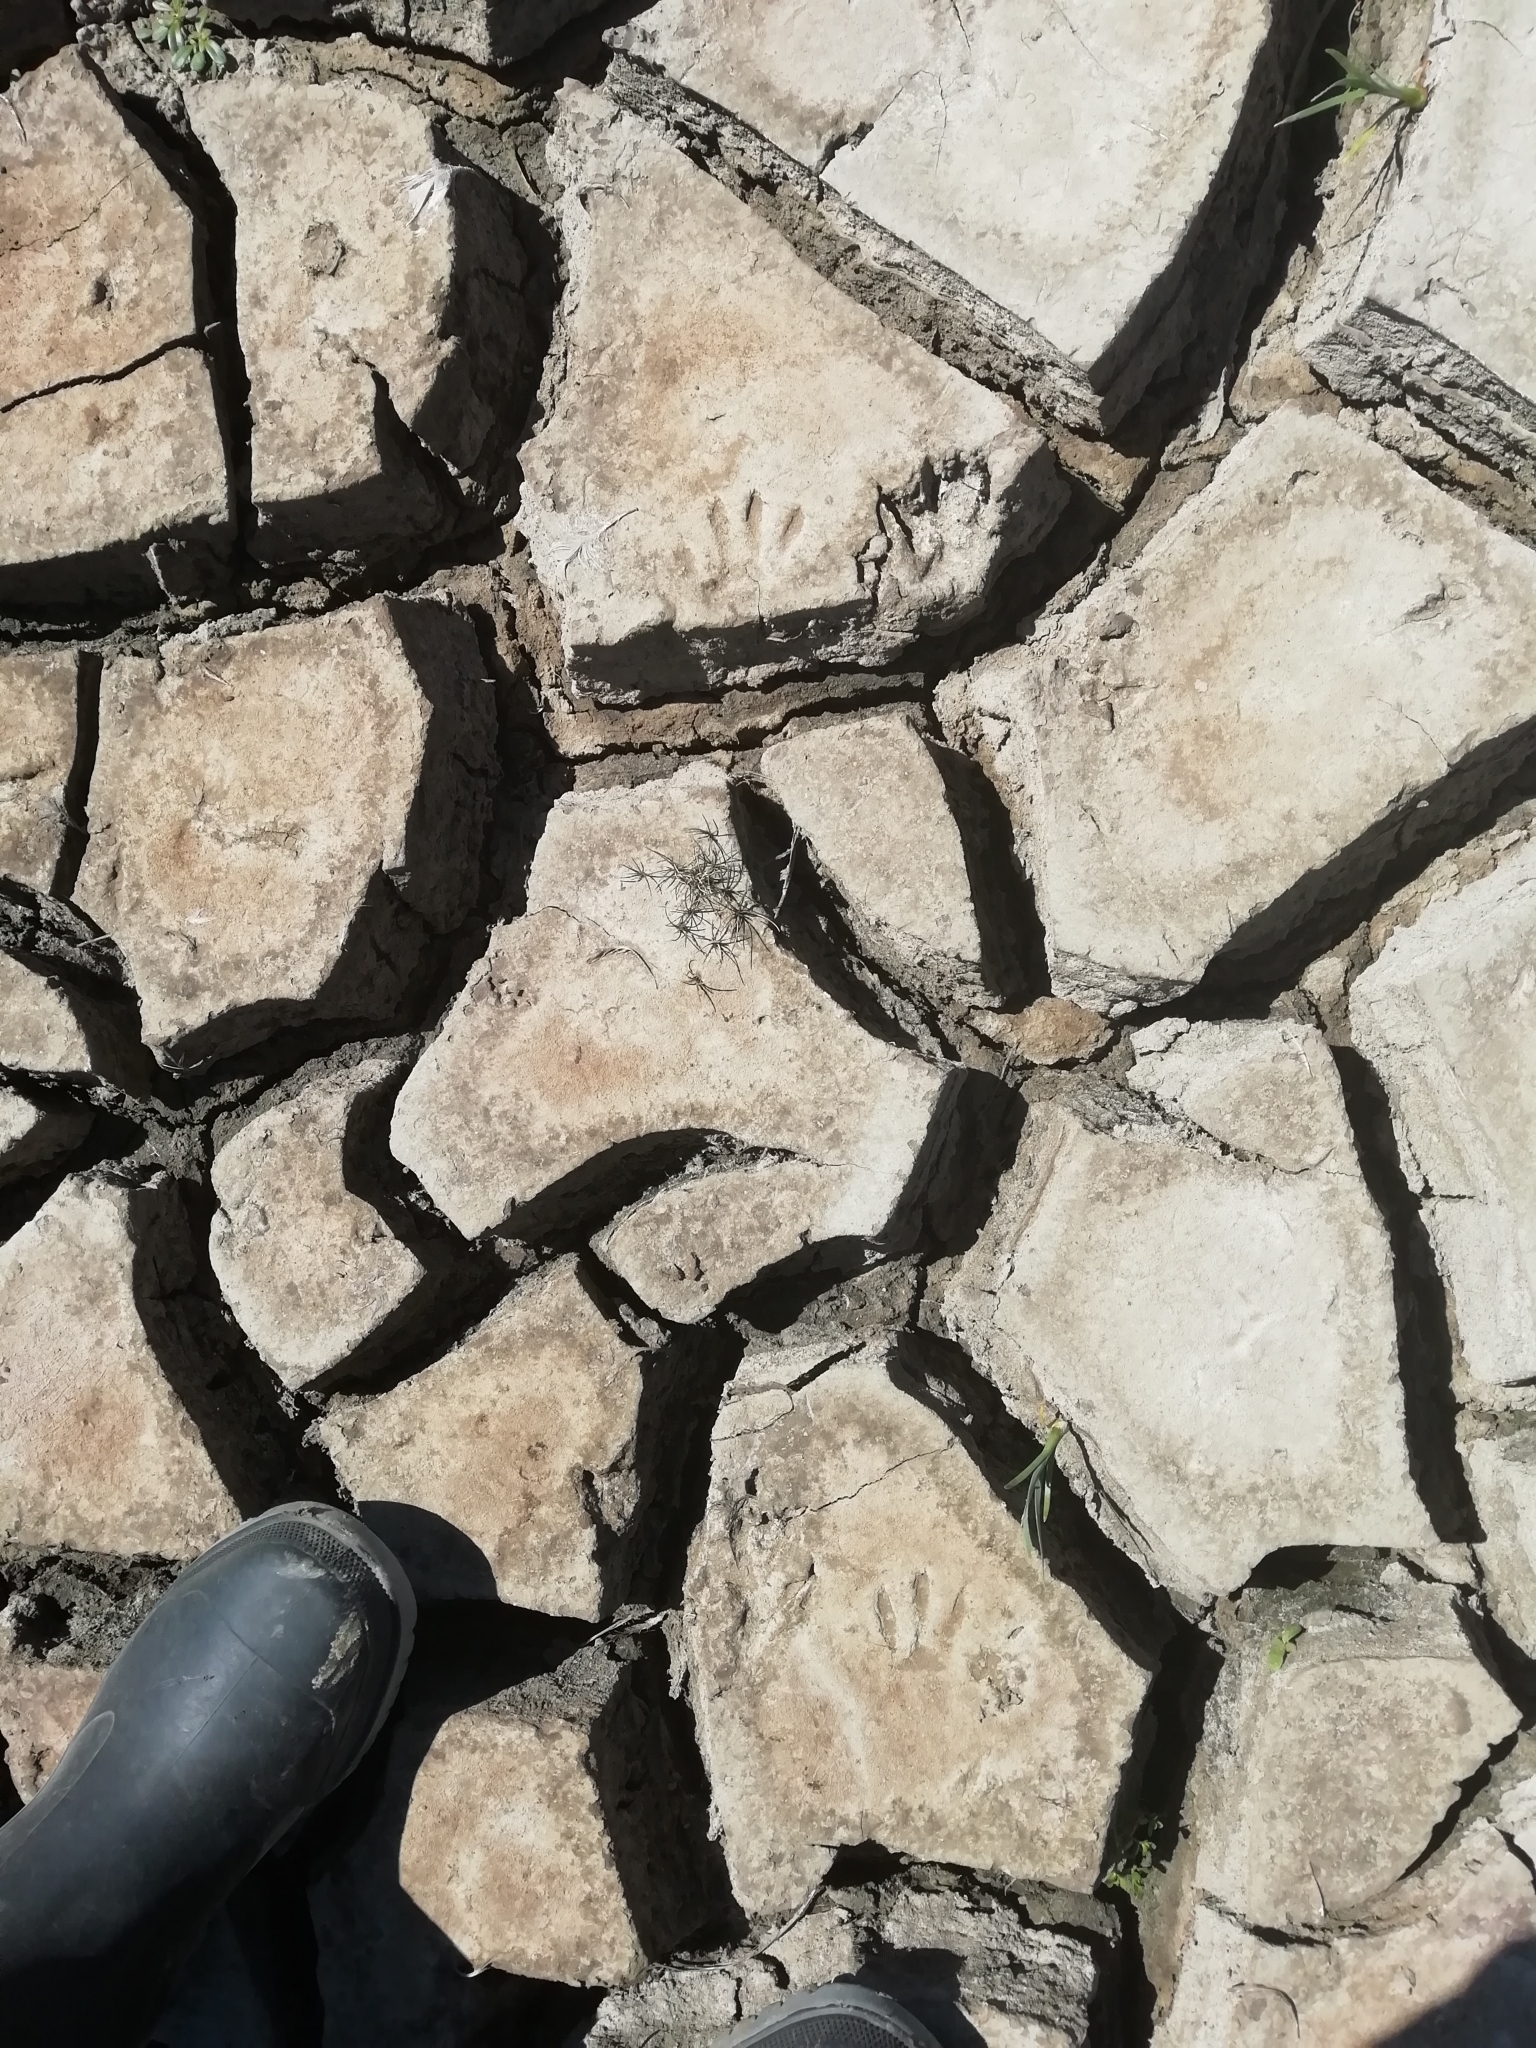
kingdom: Animalia
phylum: Chordata
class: Mammalia
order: Carnivora
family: Procyonidae
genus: Procyon
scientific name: Procyon cancrivorus
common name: Crab-eating raccoon
